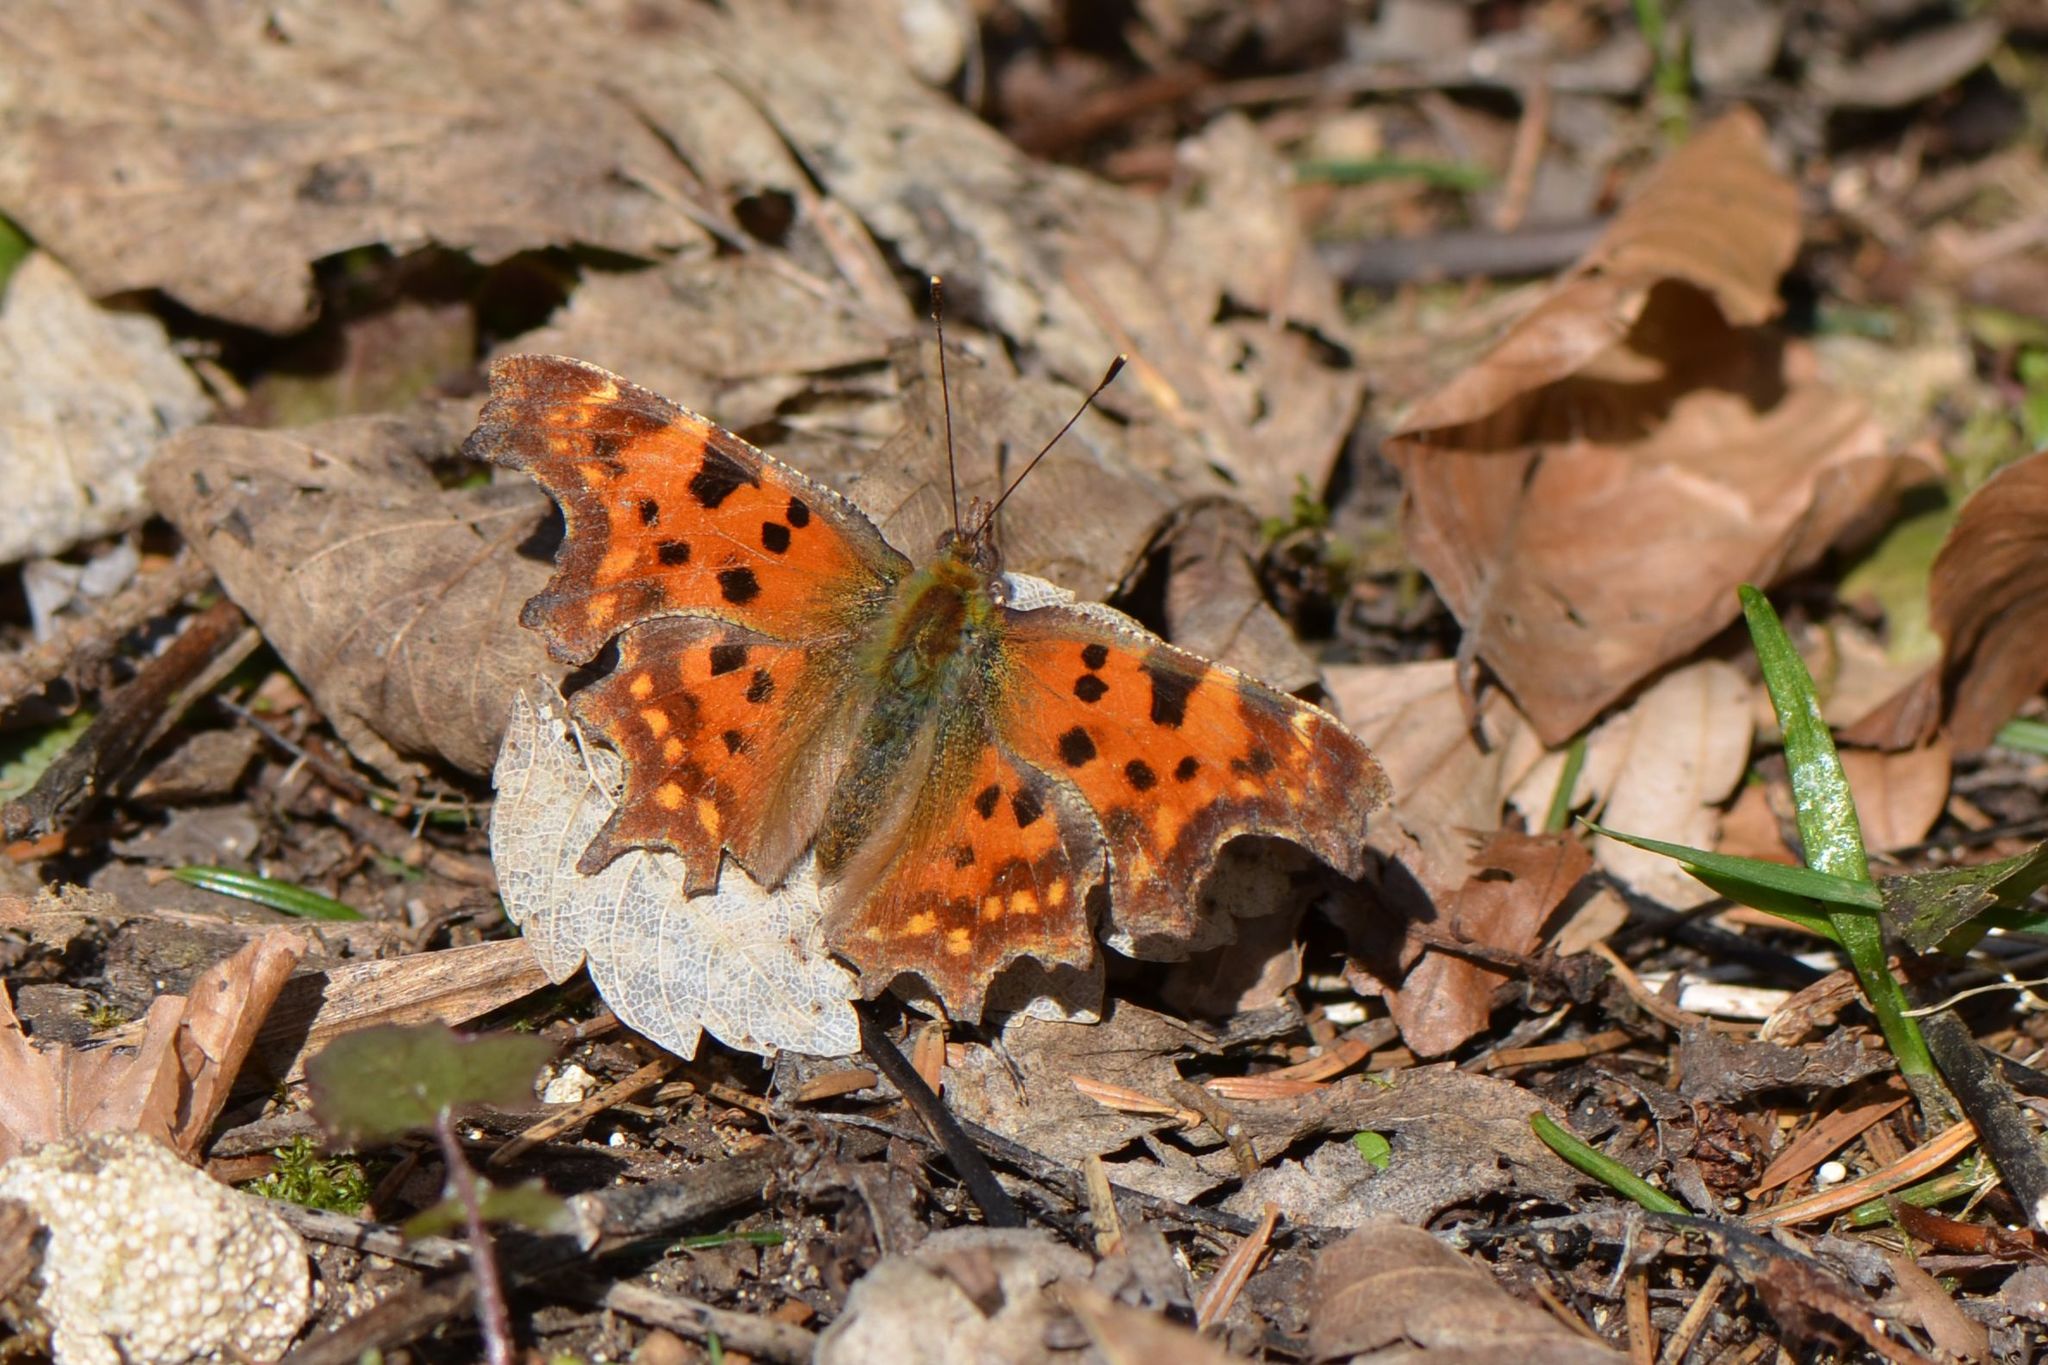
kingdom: Animalia
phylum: Arthropoda
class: Insecta
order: Lepidoptera
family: Nymphalidae
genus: Polygonia
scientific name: Polygonia c-album
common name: Comma
